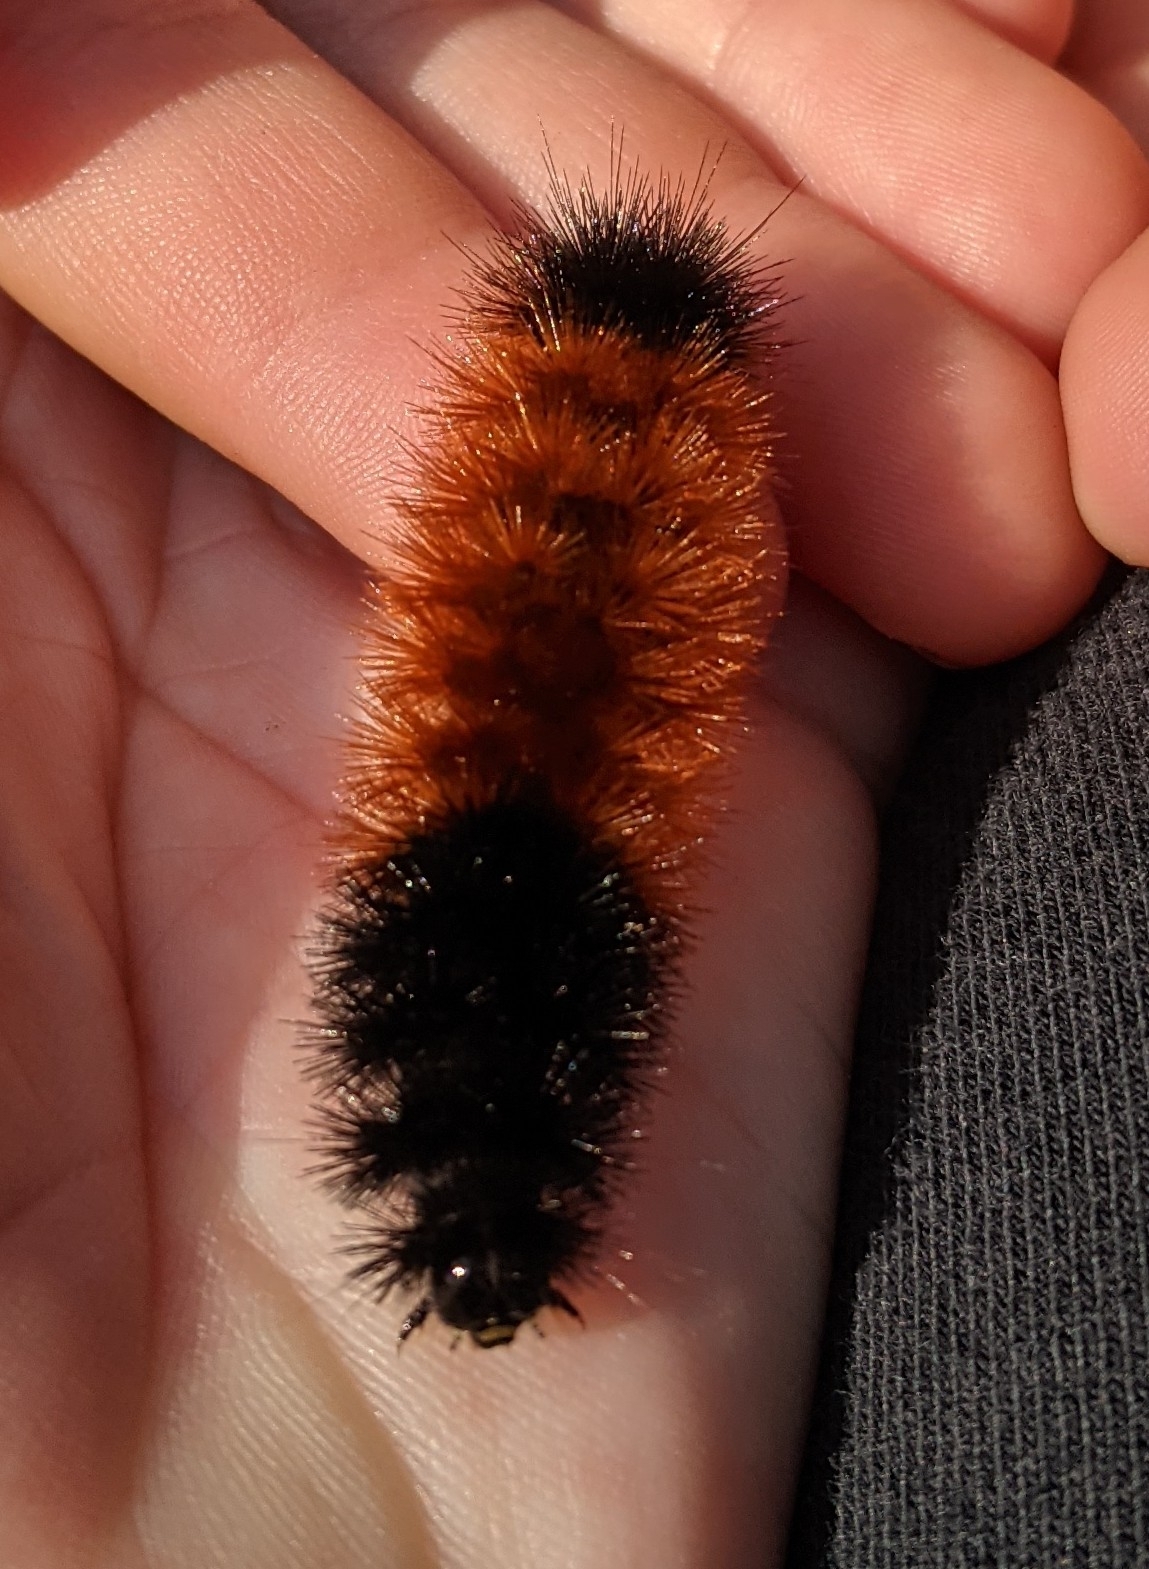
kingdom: Animalia
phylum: Arthropoda
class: Insecta
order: Lepidoptera
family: Erebidae
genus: Pyrrharctia
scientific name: Pyrrharctia isabella
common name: Isabella tiger moth
